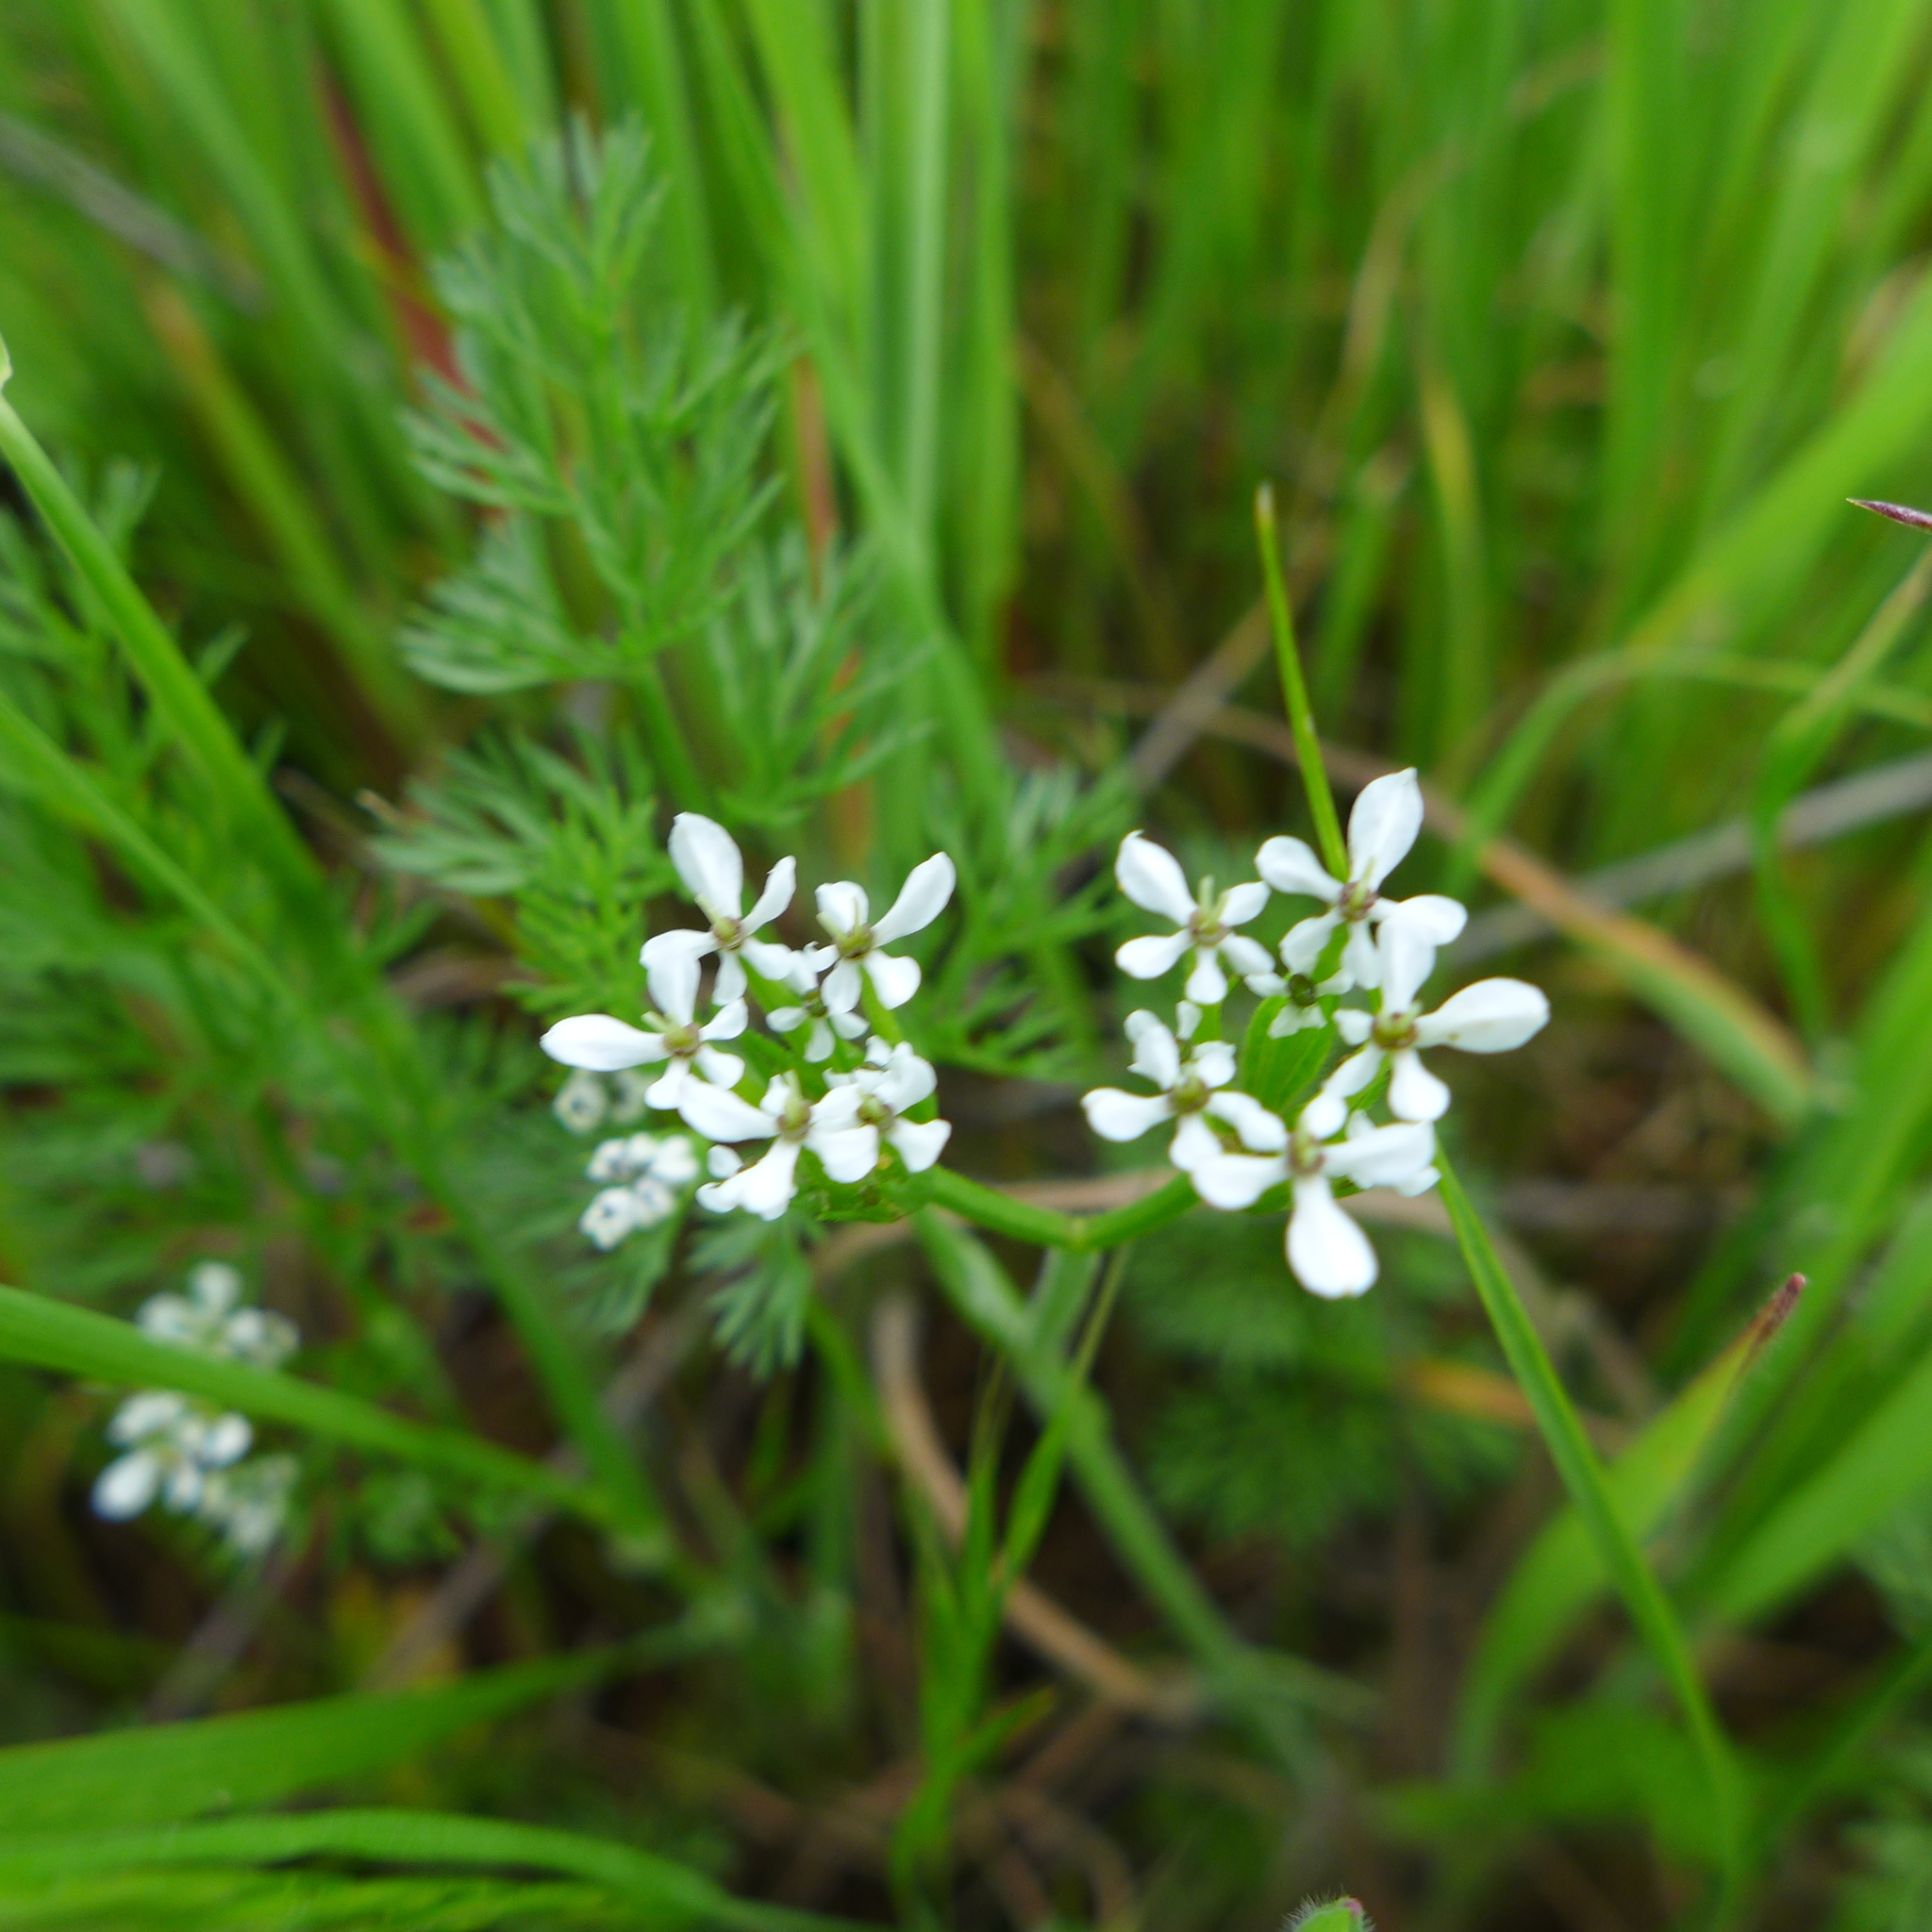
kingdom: Plantae
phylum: Tracheophyta
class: Magnoliopsida
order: Apiales
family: Apiaceae
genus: Scandix
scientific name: Scandix pecten-veneris
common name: Shepherd's-needle
